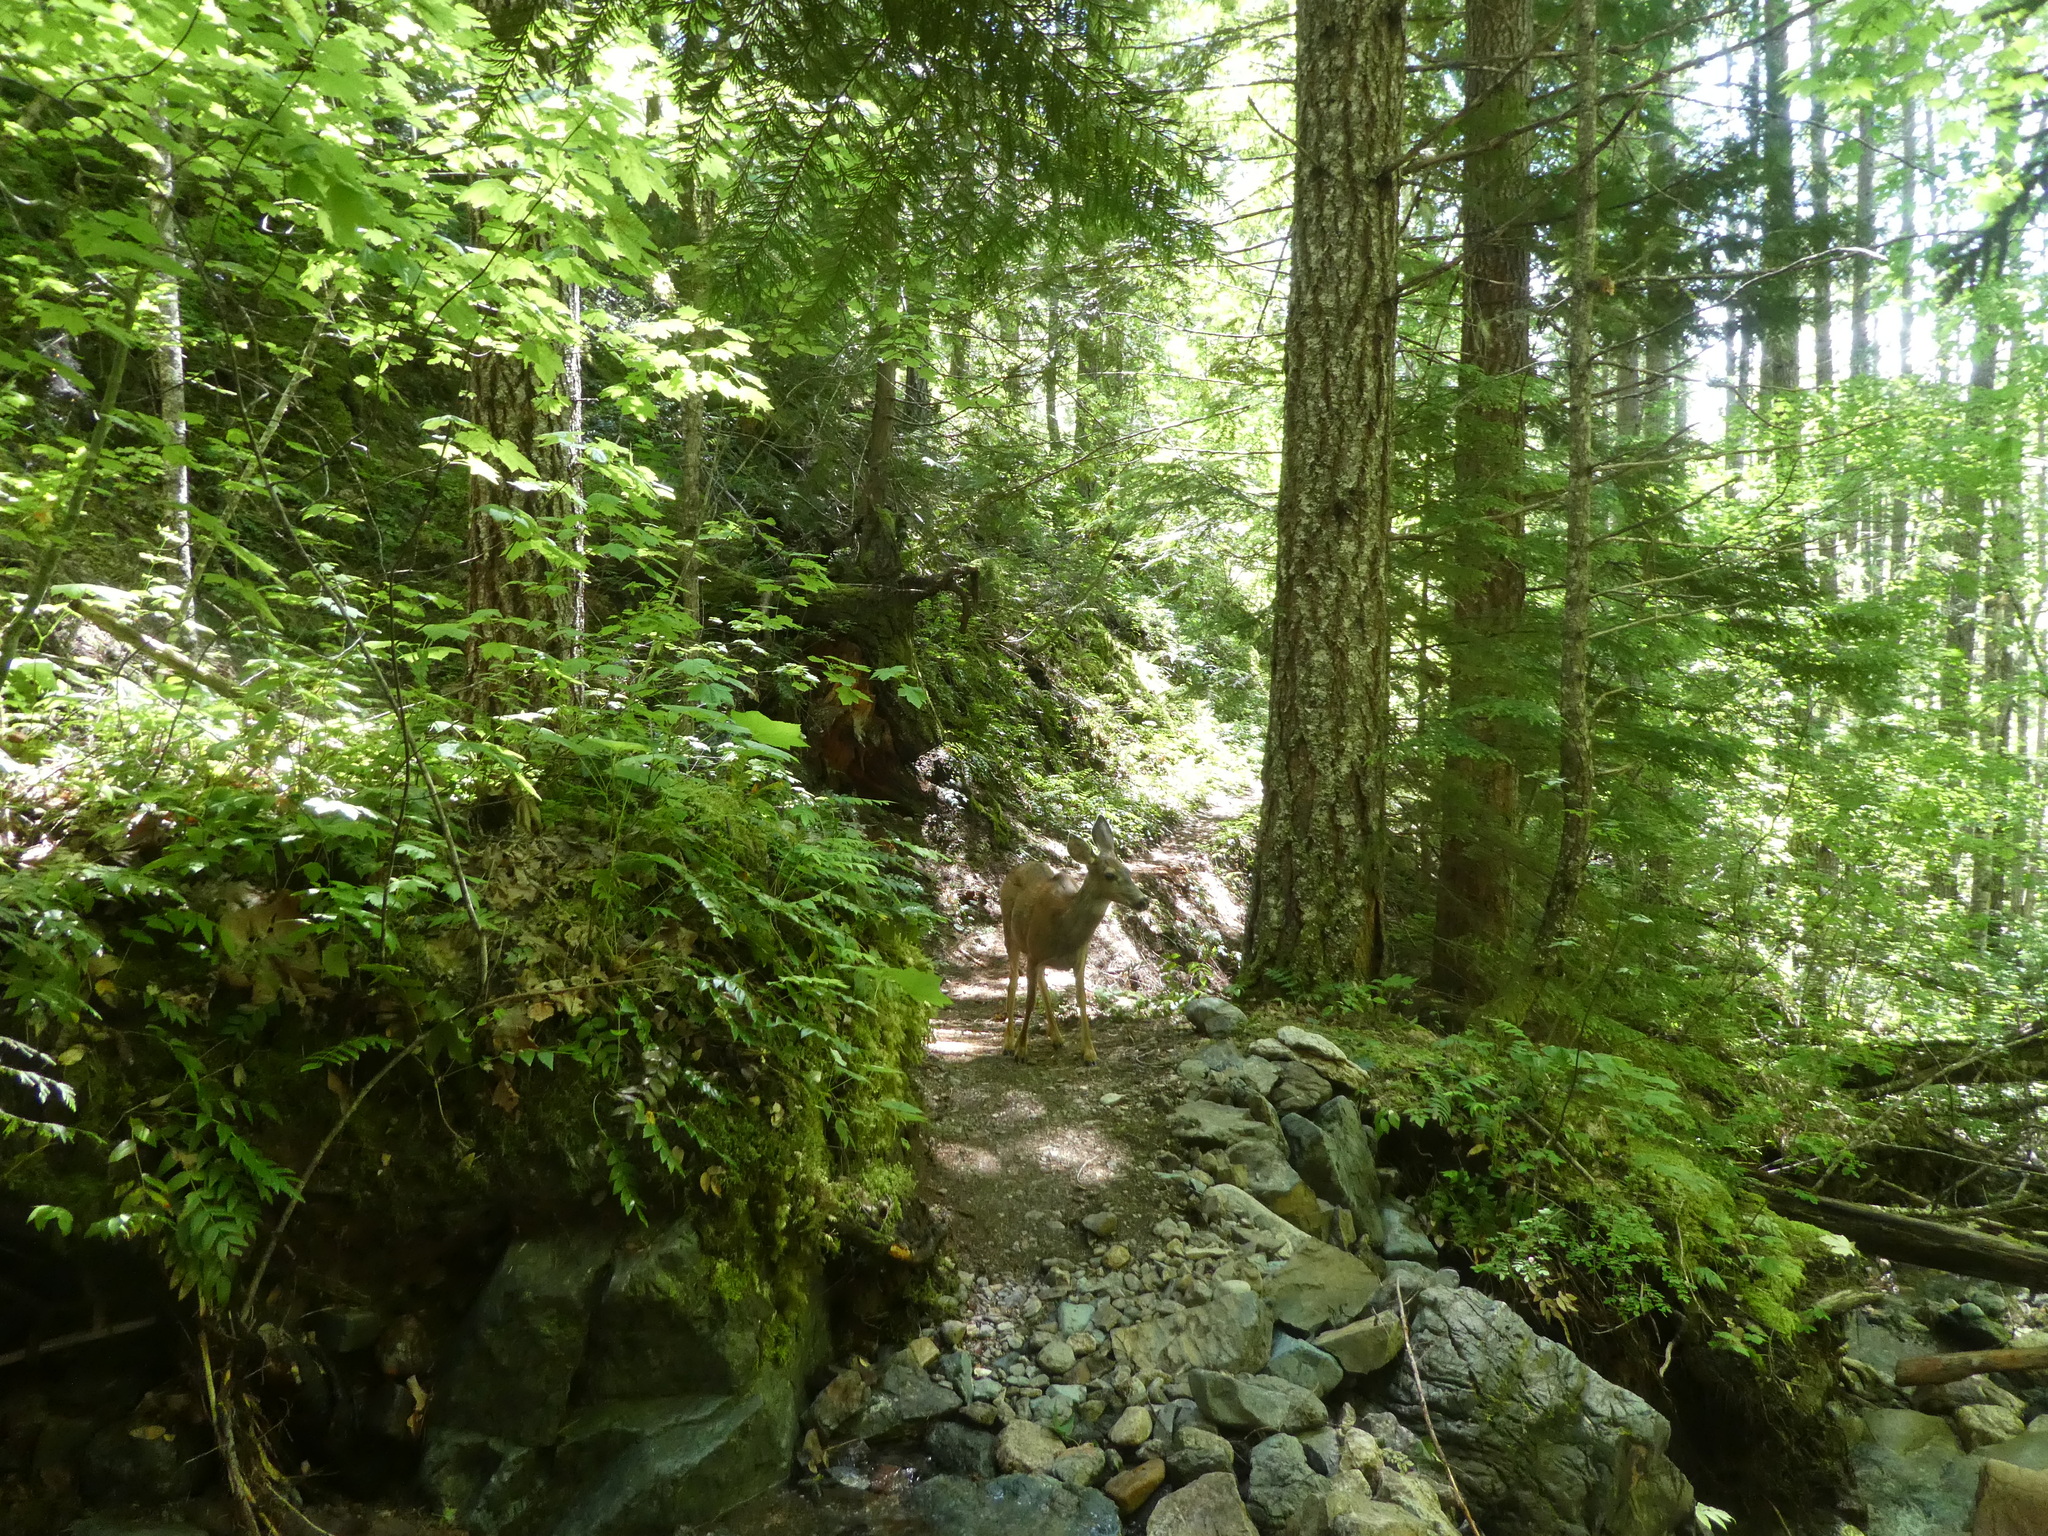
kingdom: Animalia
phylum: Chordata
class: Mammalia
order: Artiodactyla
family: Cervidae
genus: Odocoileus
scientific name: Odocoileus hemionus
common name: Mule deer
